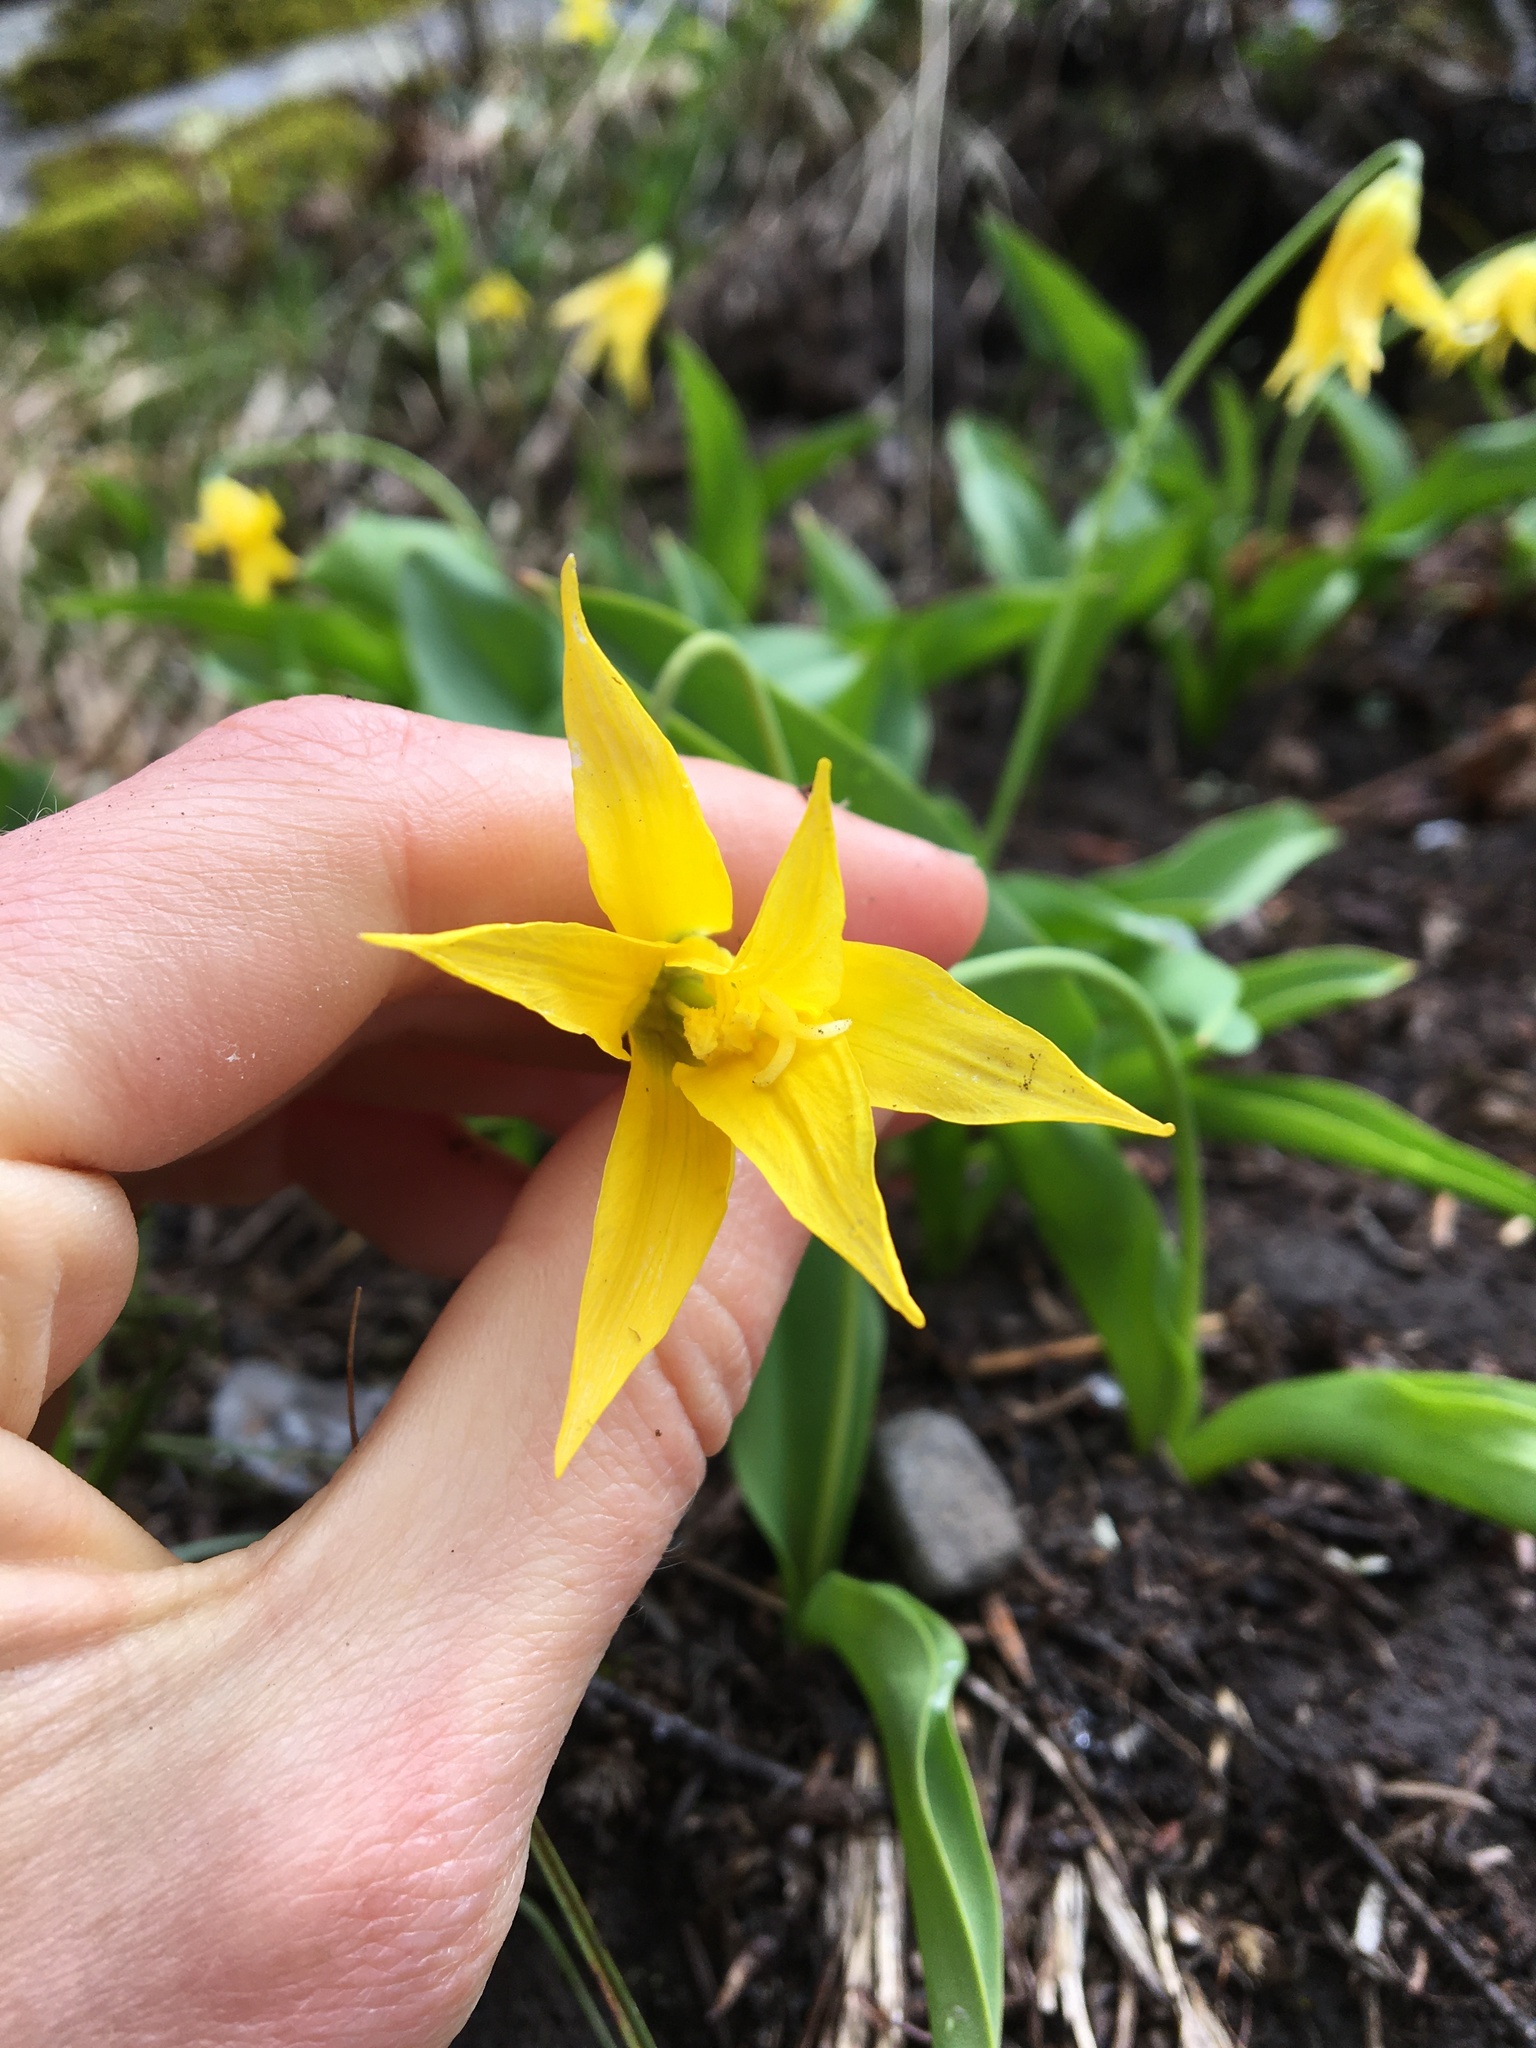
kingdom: Plantae
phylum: Tracheophyta
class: Liliopsida
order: Liliales
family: Liliaceae
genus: Erythronium
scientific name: Erythronium grandiflorum
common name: Avalanche-lily
